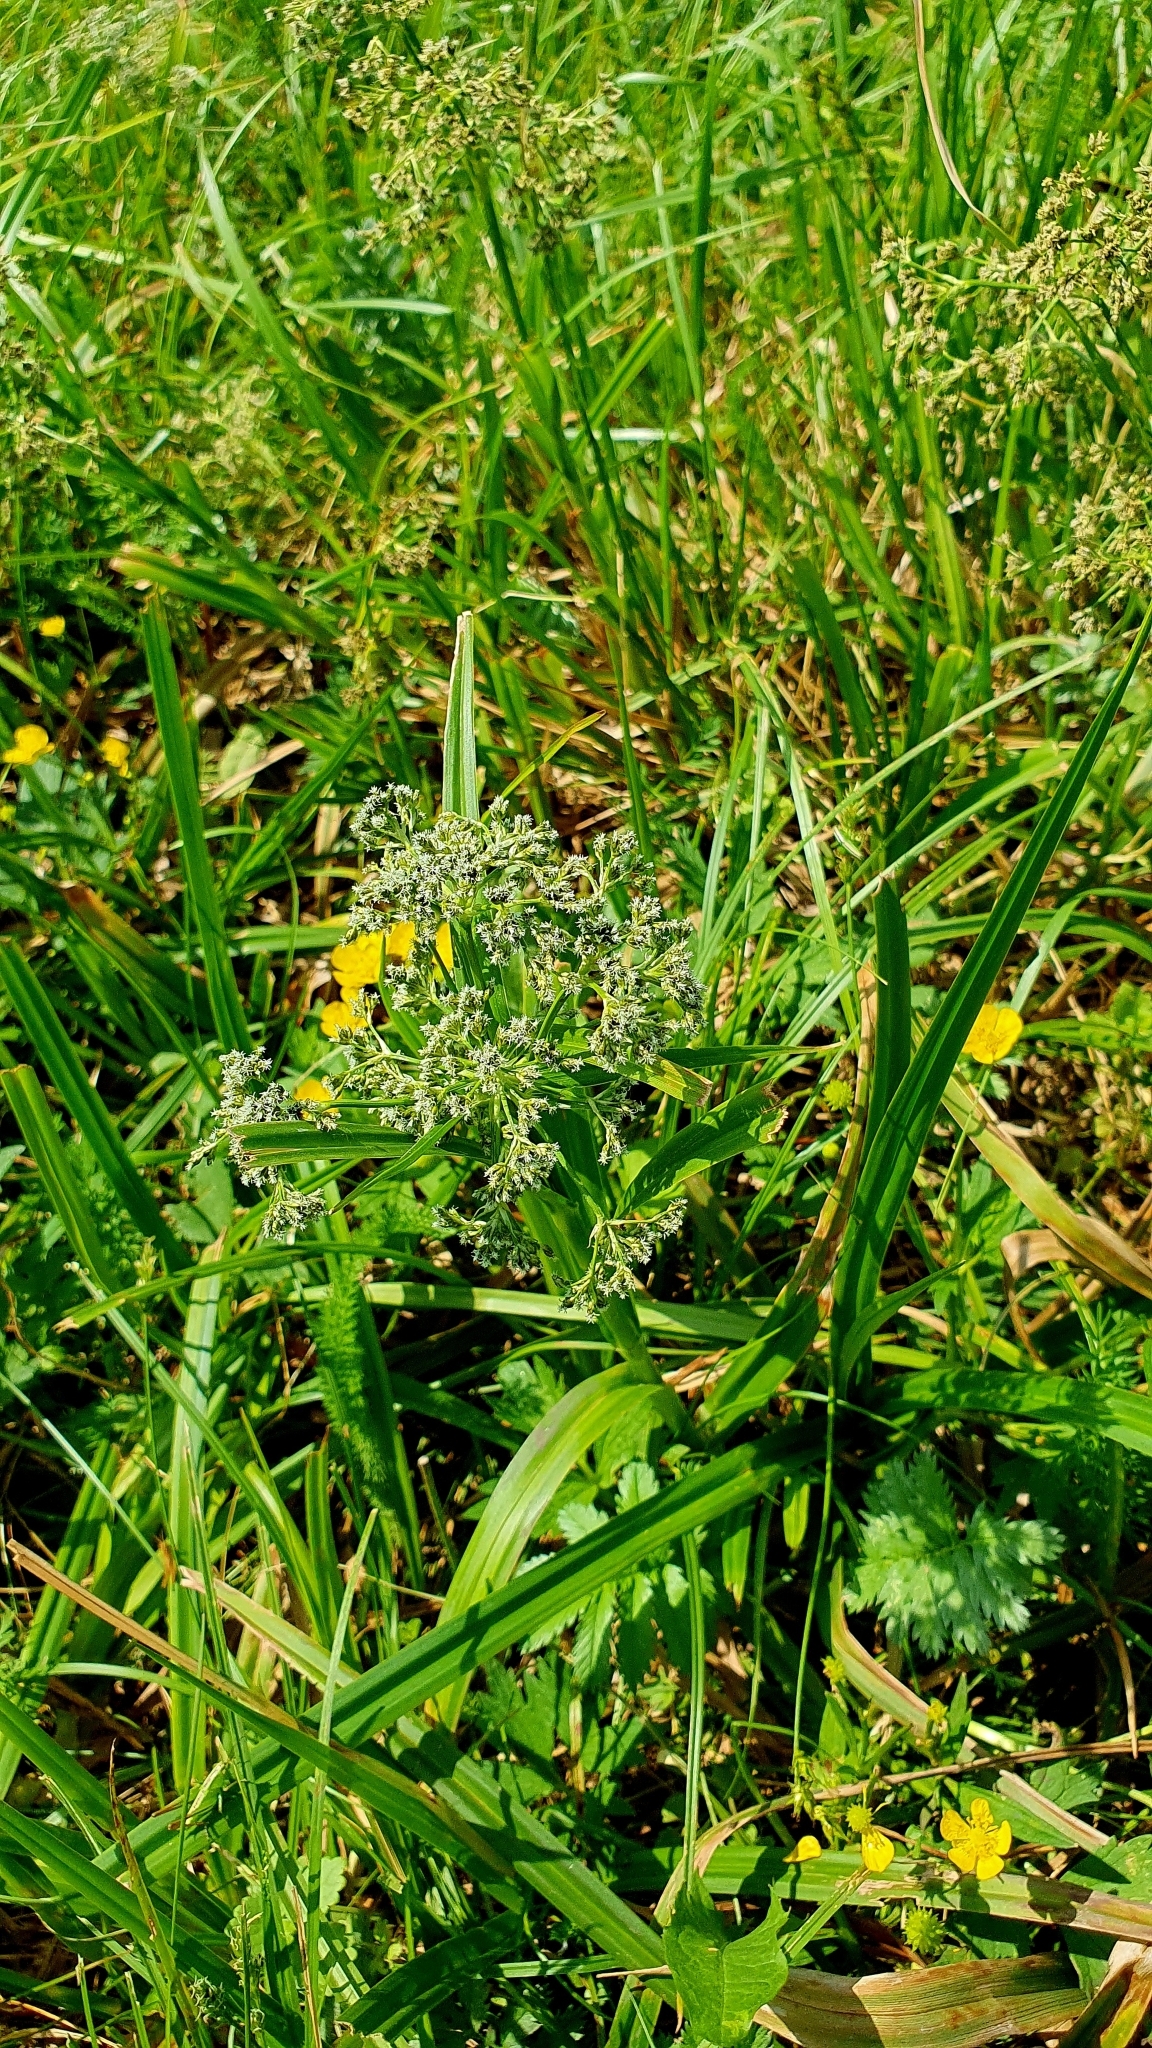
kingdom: Plantae
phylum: Tracheophyta
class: Liliopsida
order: Poales
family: Cyperaceae
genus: Scirpus
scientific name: Scirpus sylvaticus
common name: Wood club-rush
